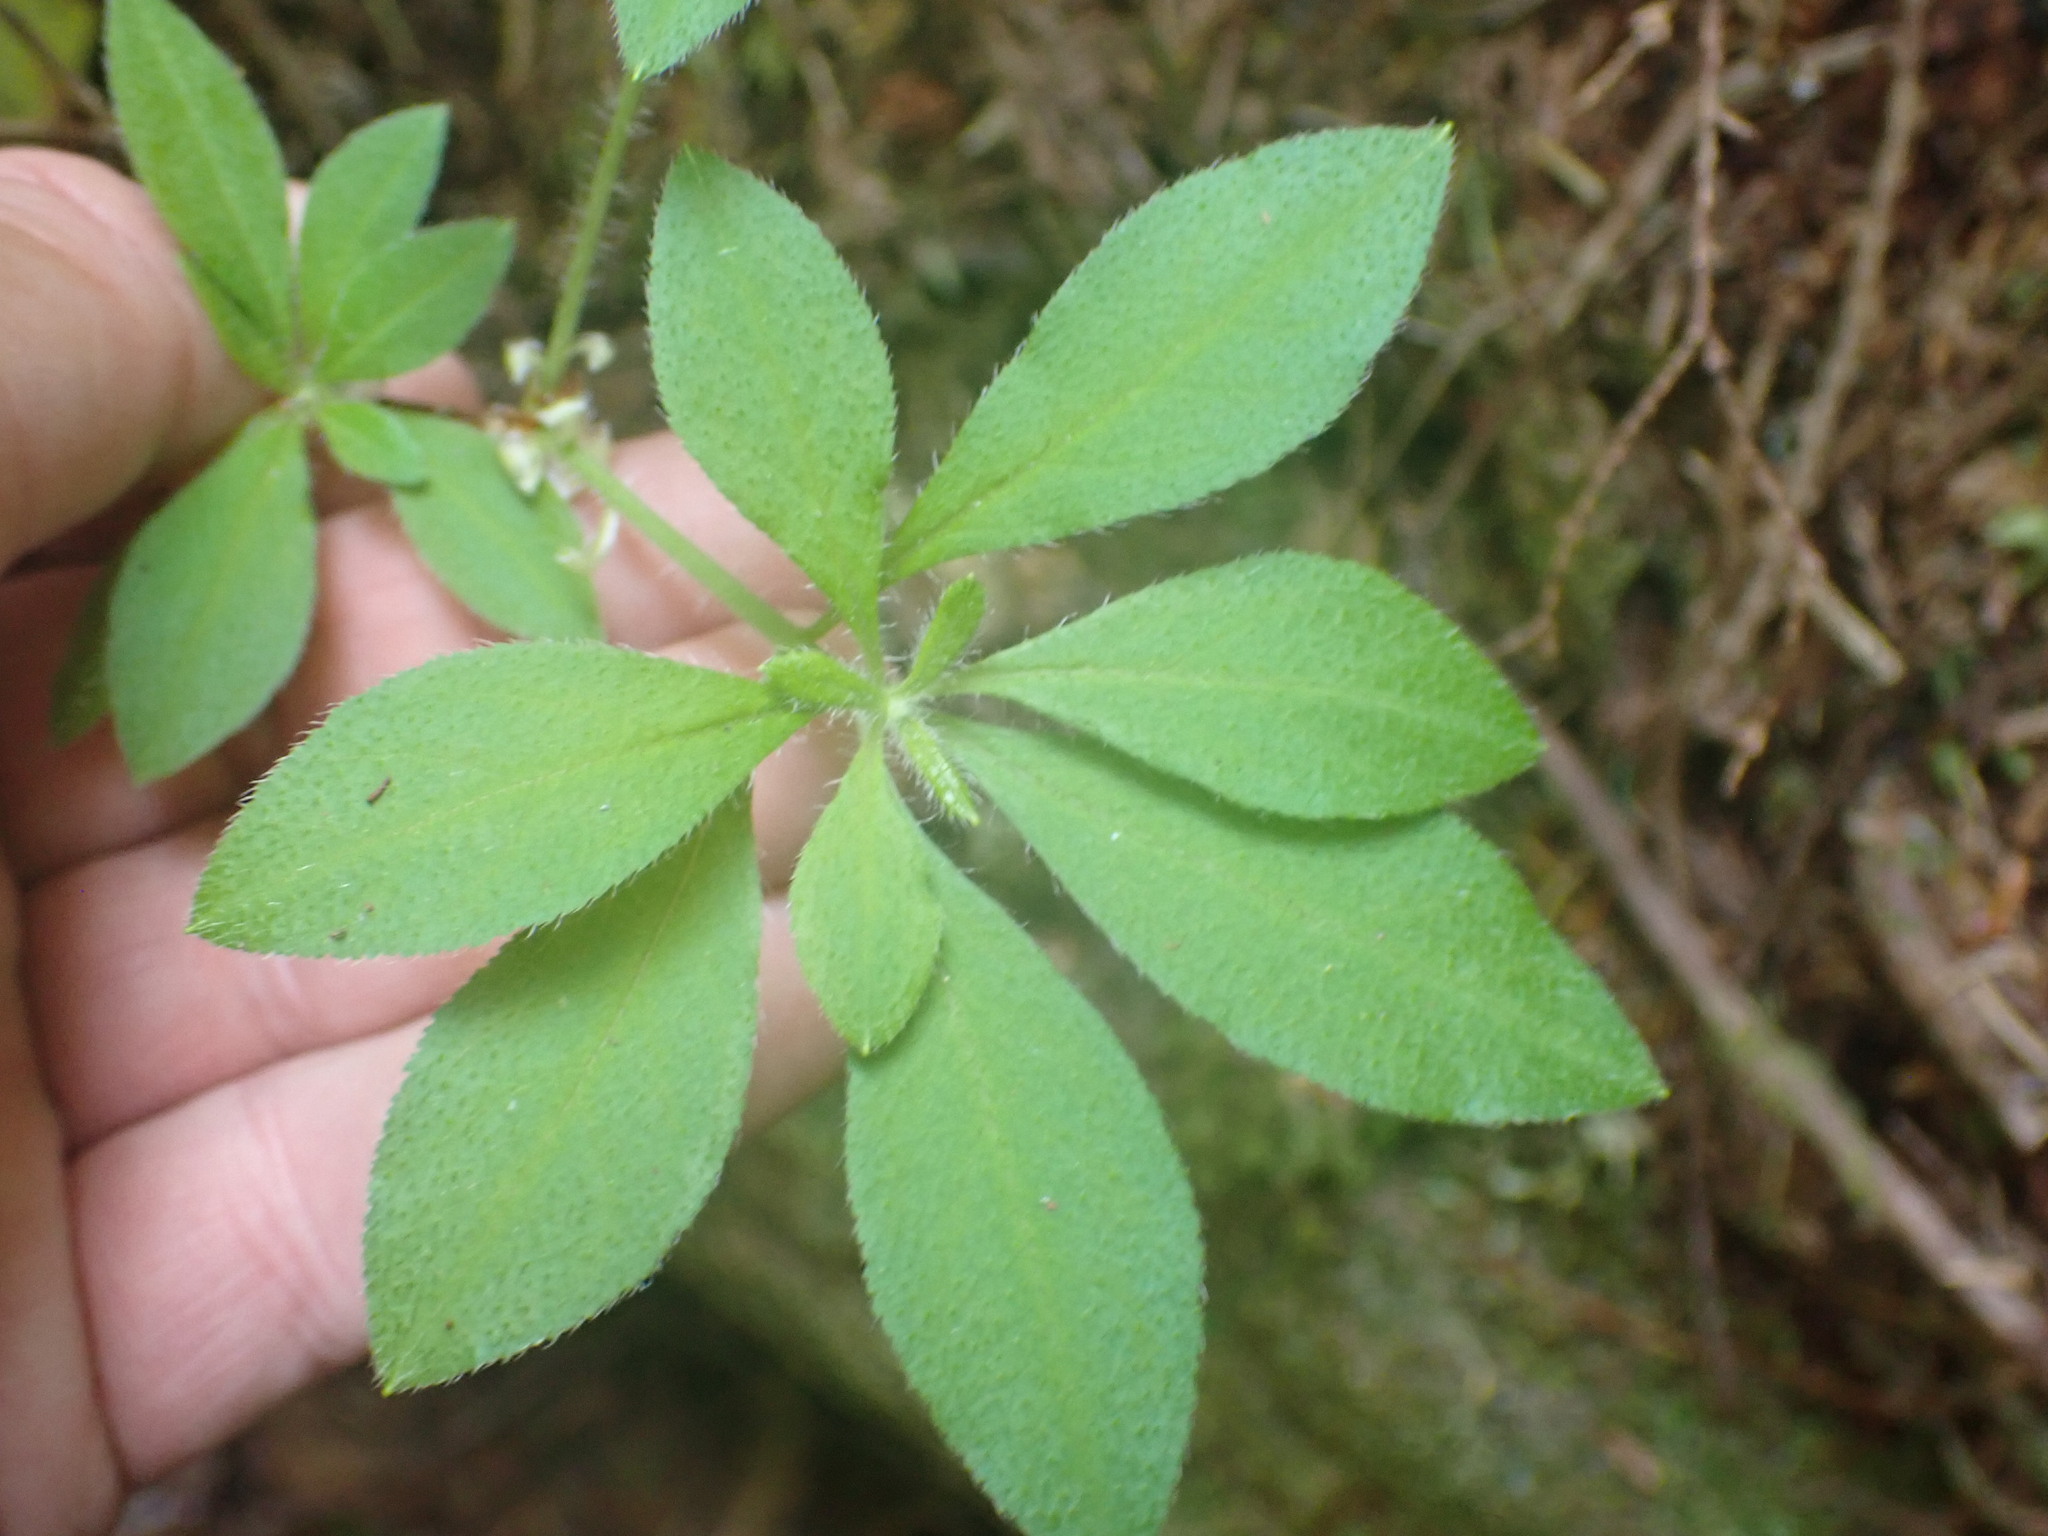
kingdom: Plantae
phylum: Tracheophyta
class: Magnoliopsida
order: Ericales
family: Ericaceae
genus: Rhododendron
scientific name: Rhododendron menziesii
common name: Pacific menziesia
